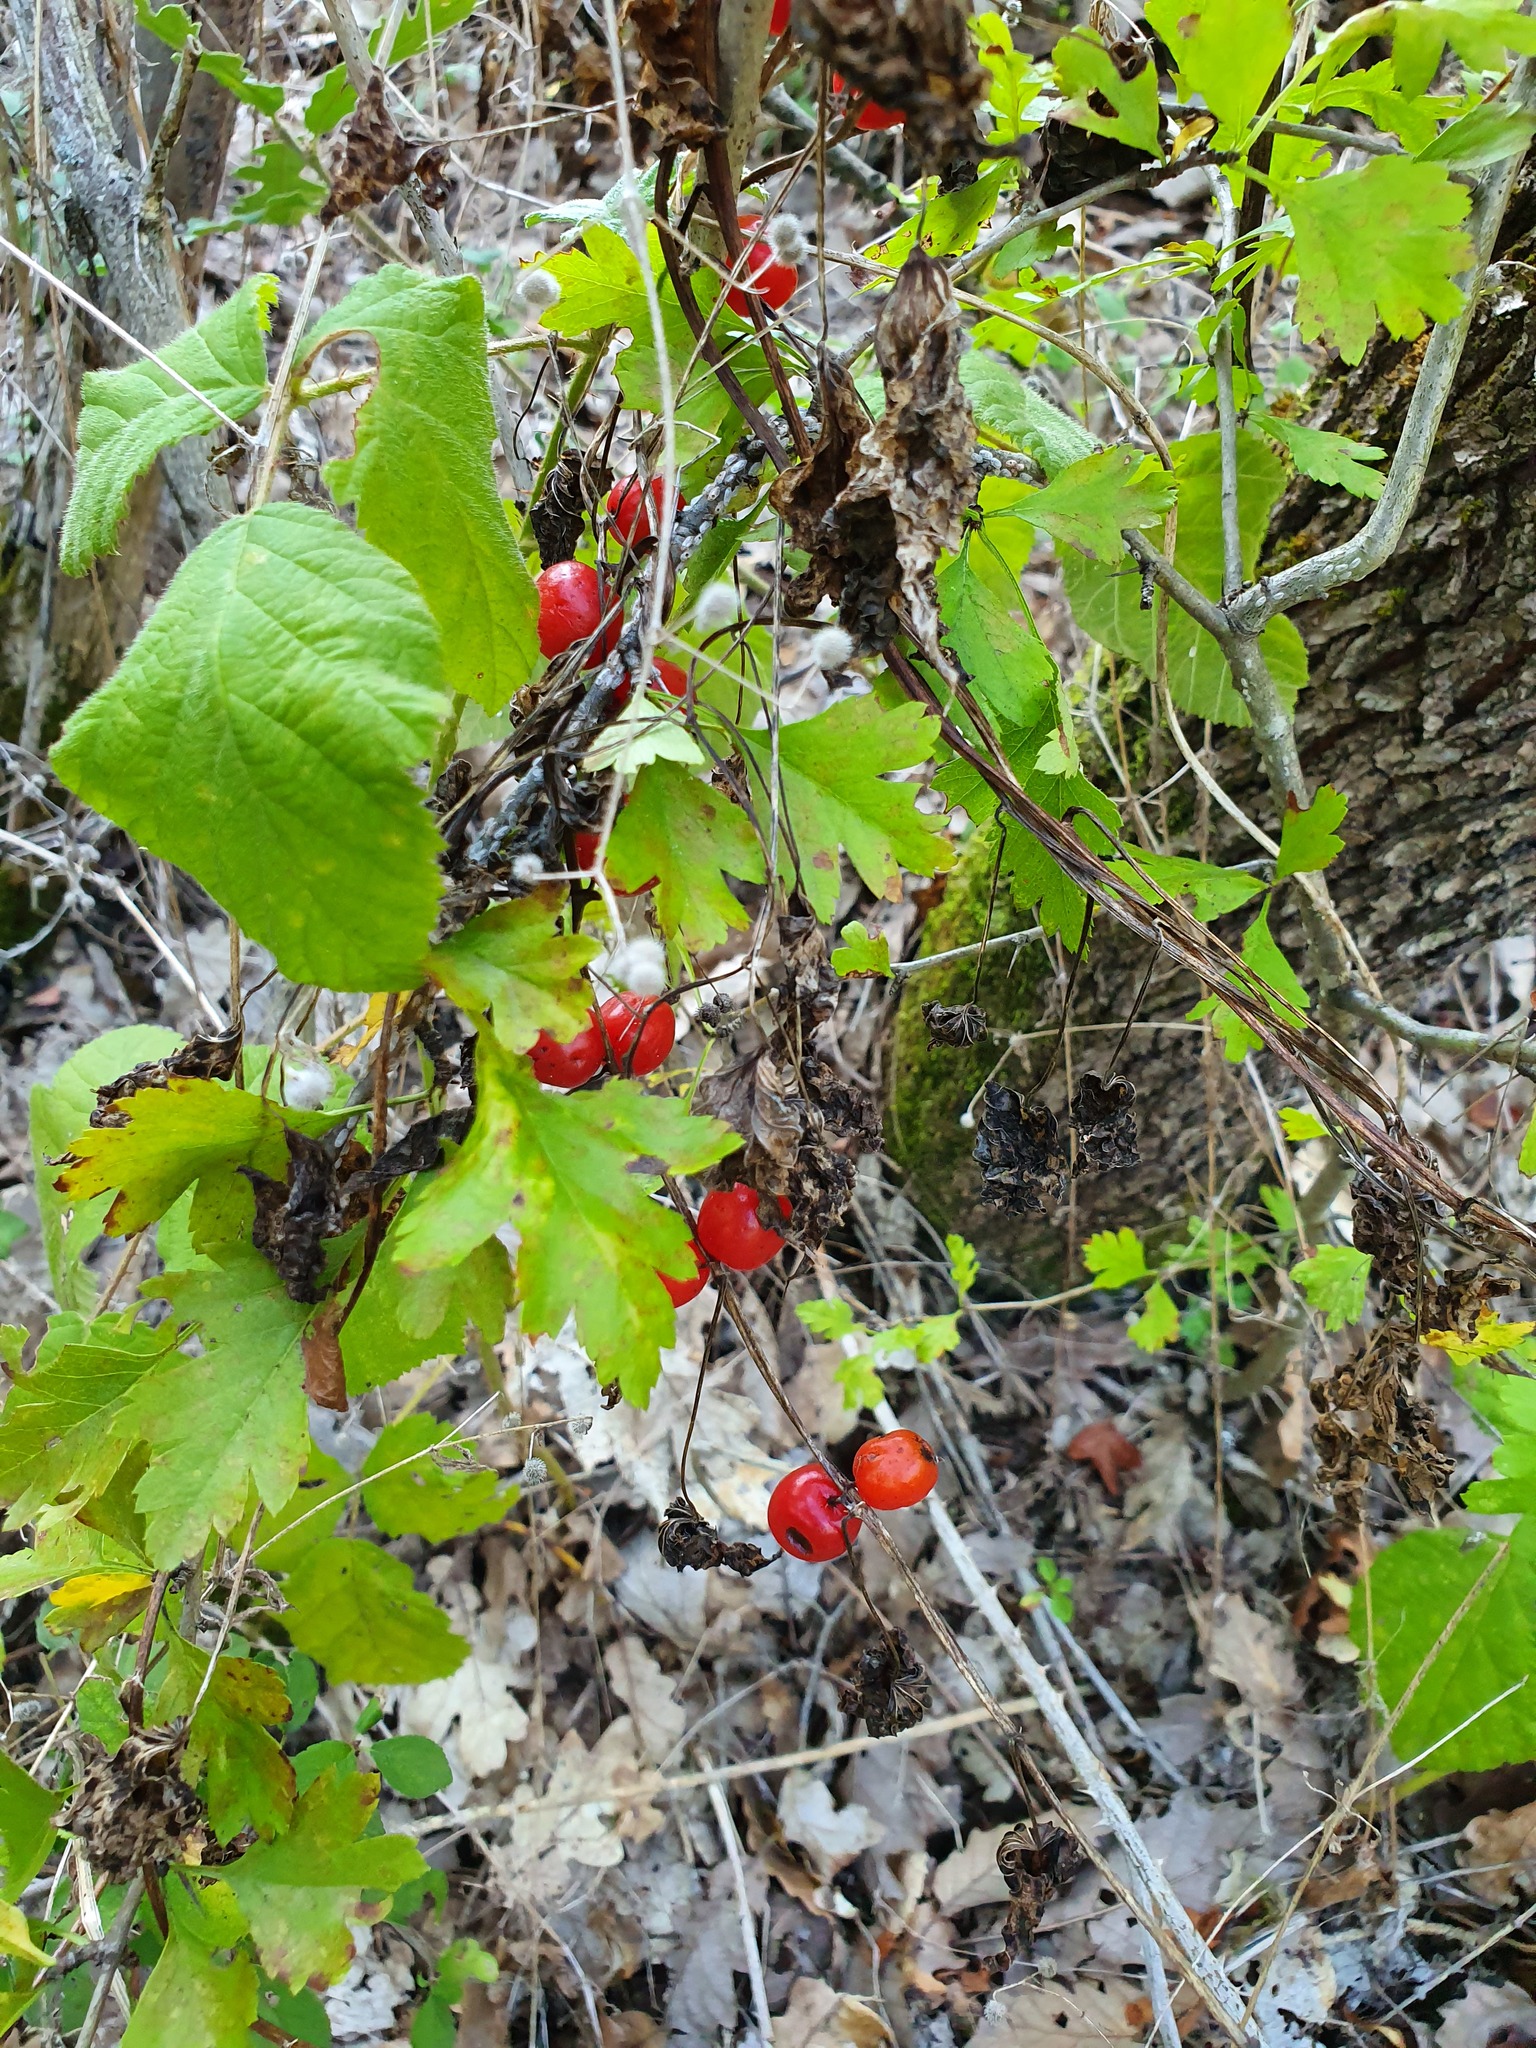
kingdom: Plantae
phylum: Tracheophyta
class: Liliopsida
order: Dioscoreales
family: Dioscoreaceae
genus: Dioscorea
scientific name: Dioscorea communis
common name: Black-bindweed
